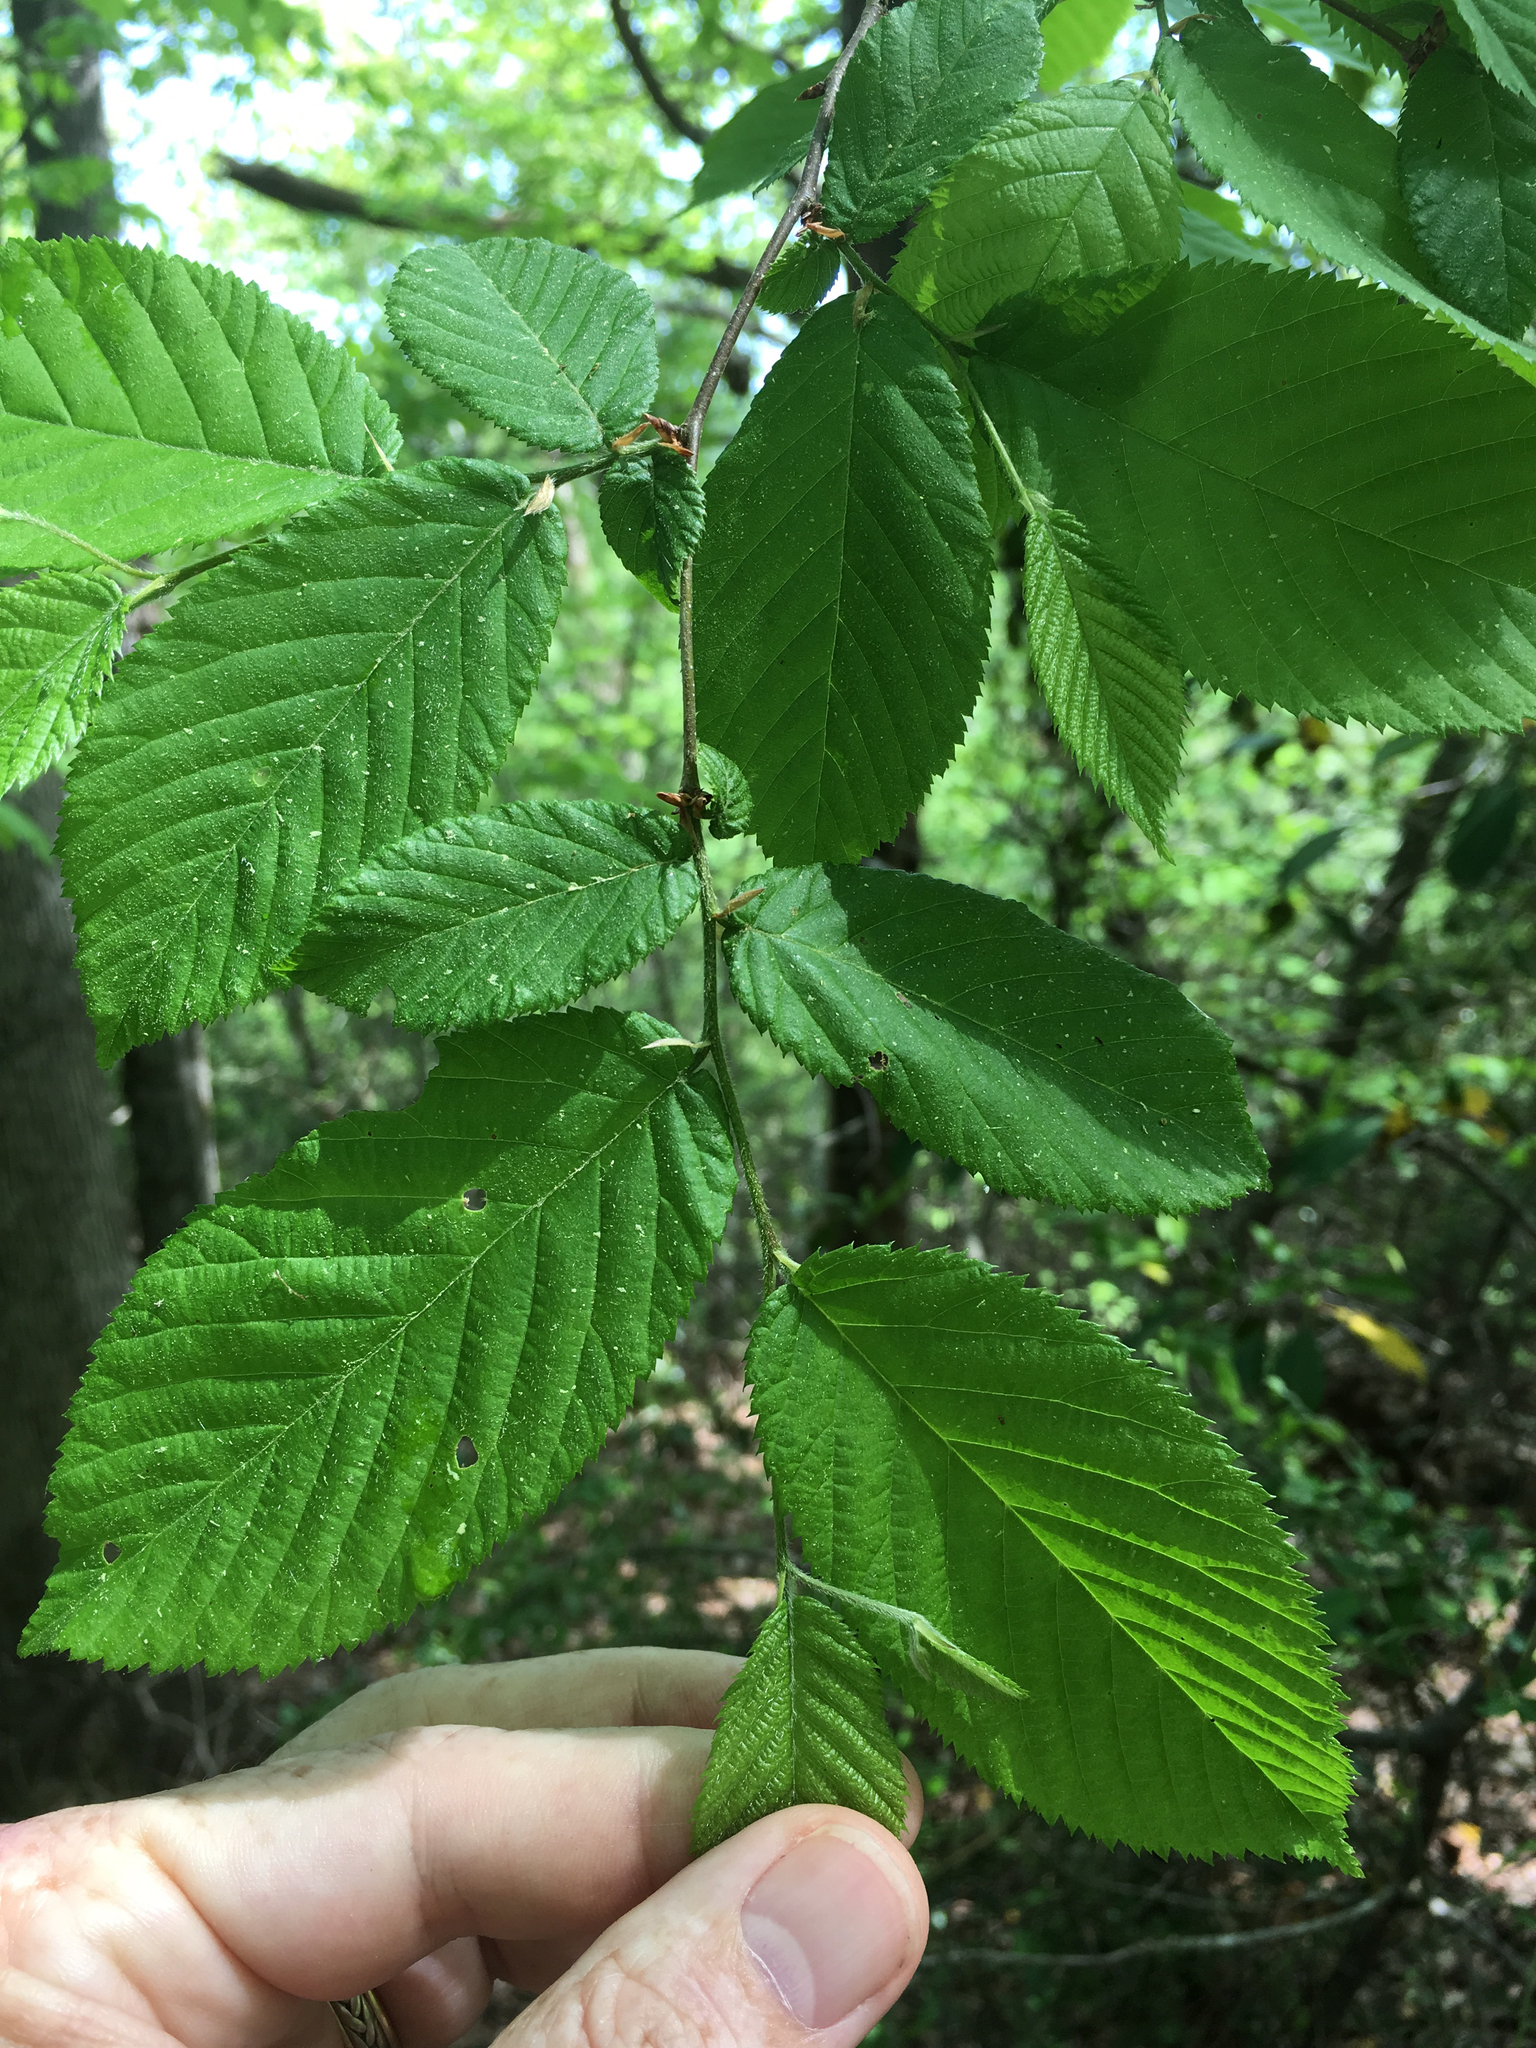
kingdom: Plantae
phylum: Tracheophyta
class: Magnoliopsida
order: Fagales
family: Betulaceae
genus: Ostrya
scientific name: Ostrya virginiana
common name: Ironwood
